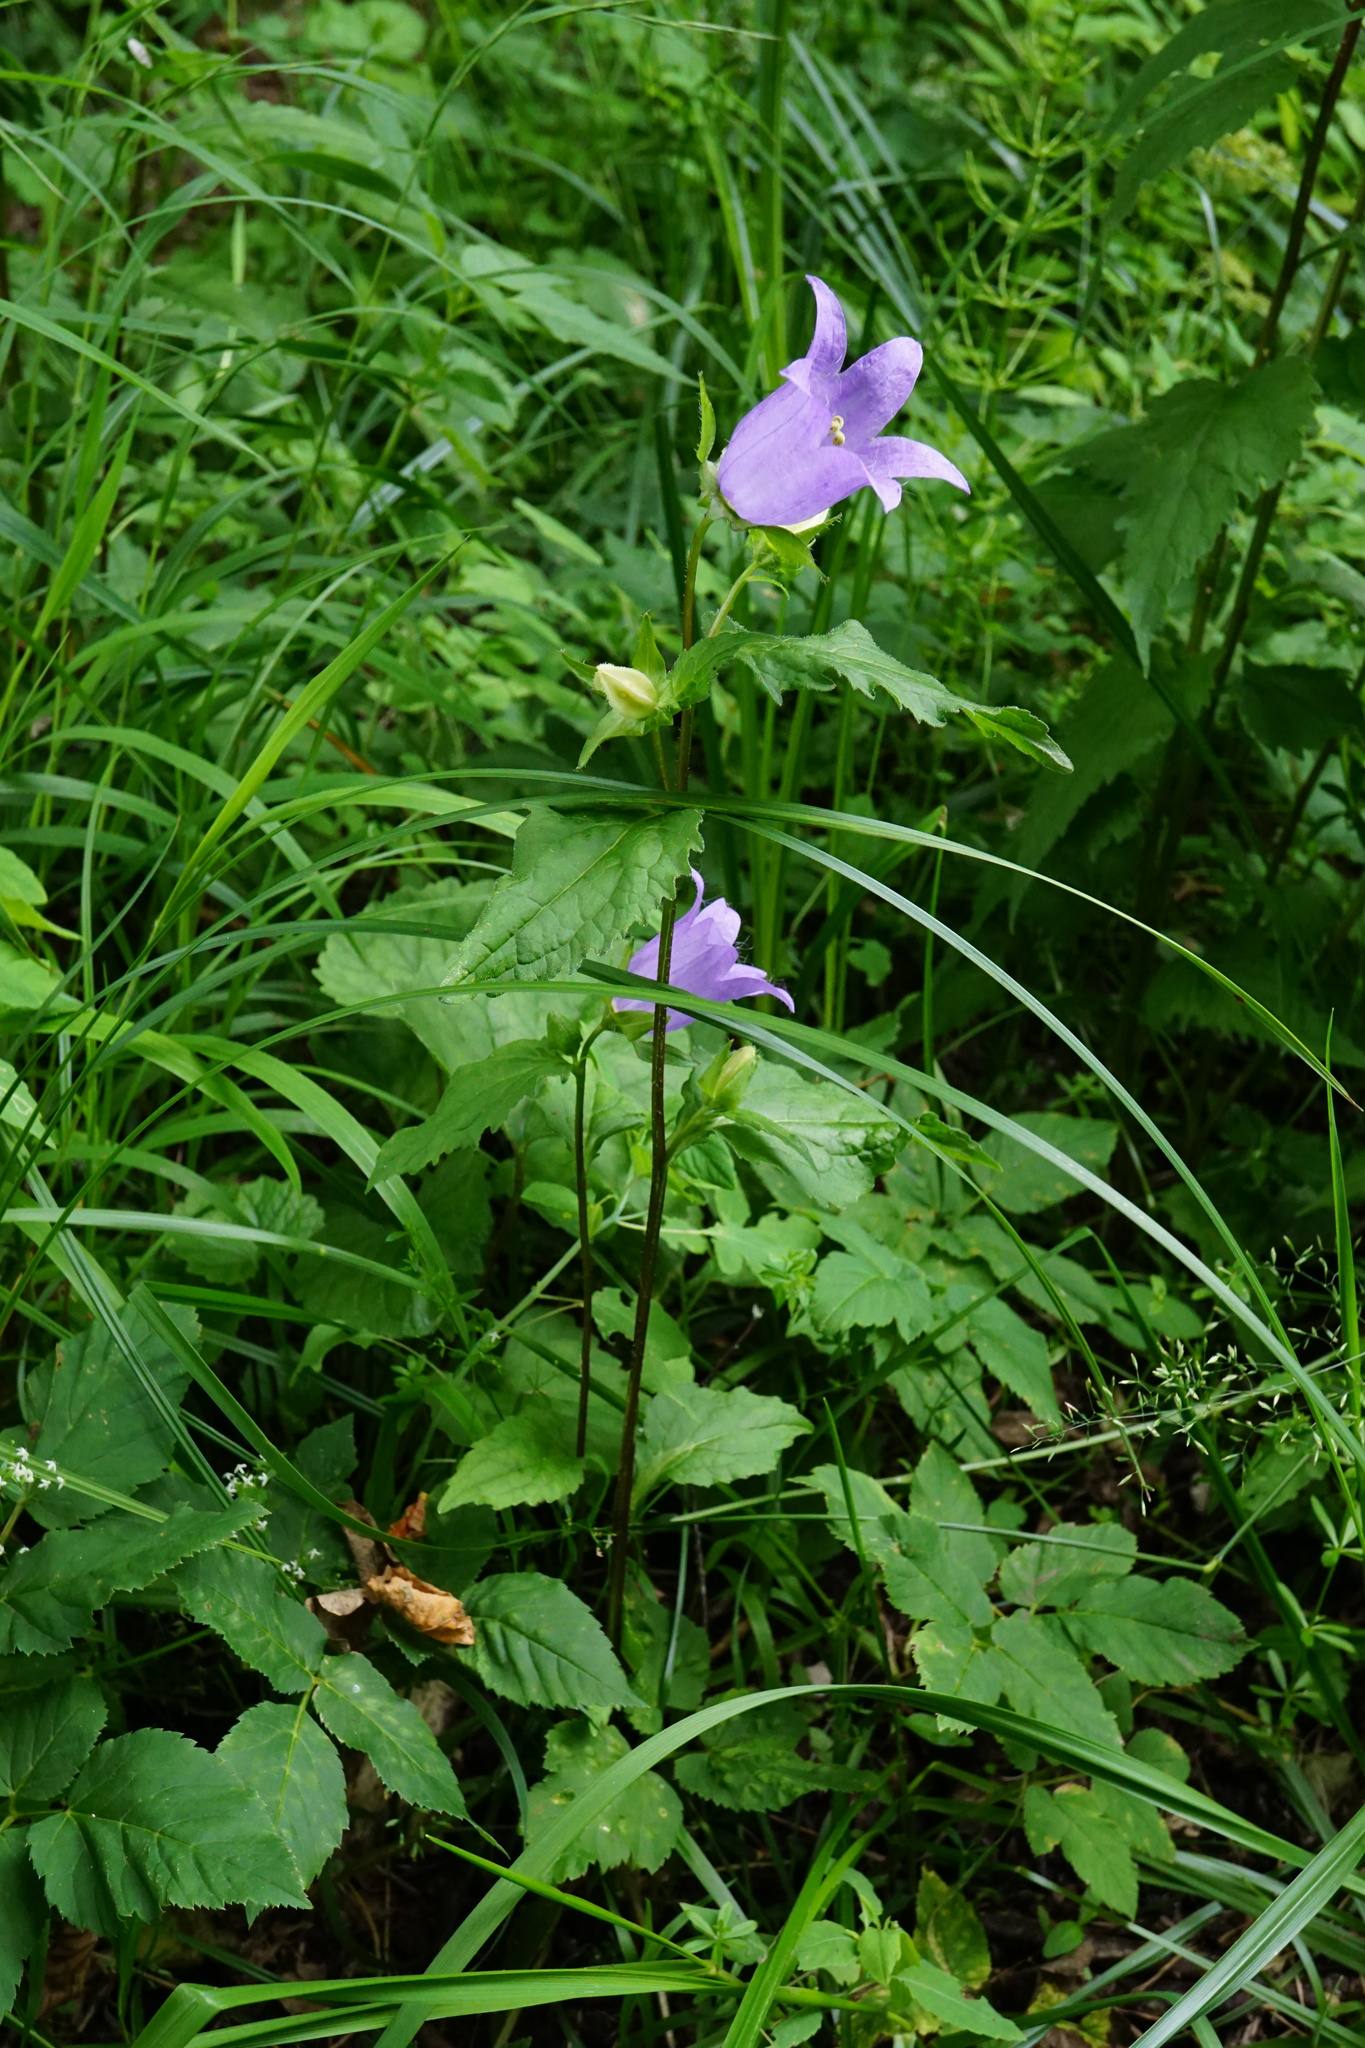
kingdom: Plantae
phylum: Tracheophyta
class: Magnoliopsida
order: Asterales
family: Campanulaceae
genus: Campanula
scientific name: Campanula trachelium
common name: Nettle-leaved bellflower
